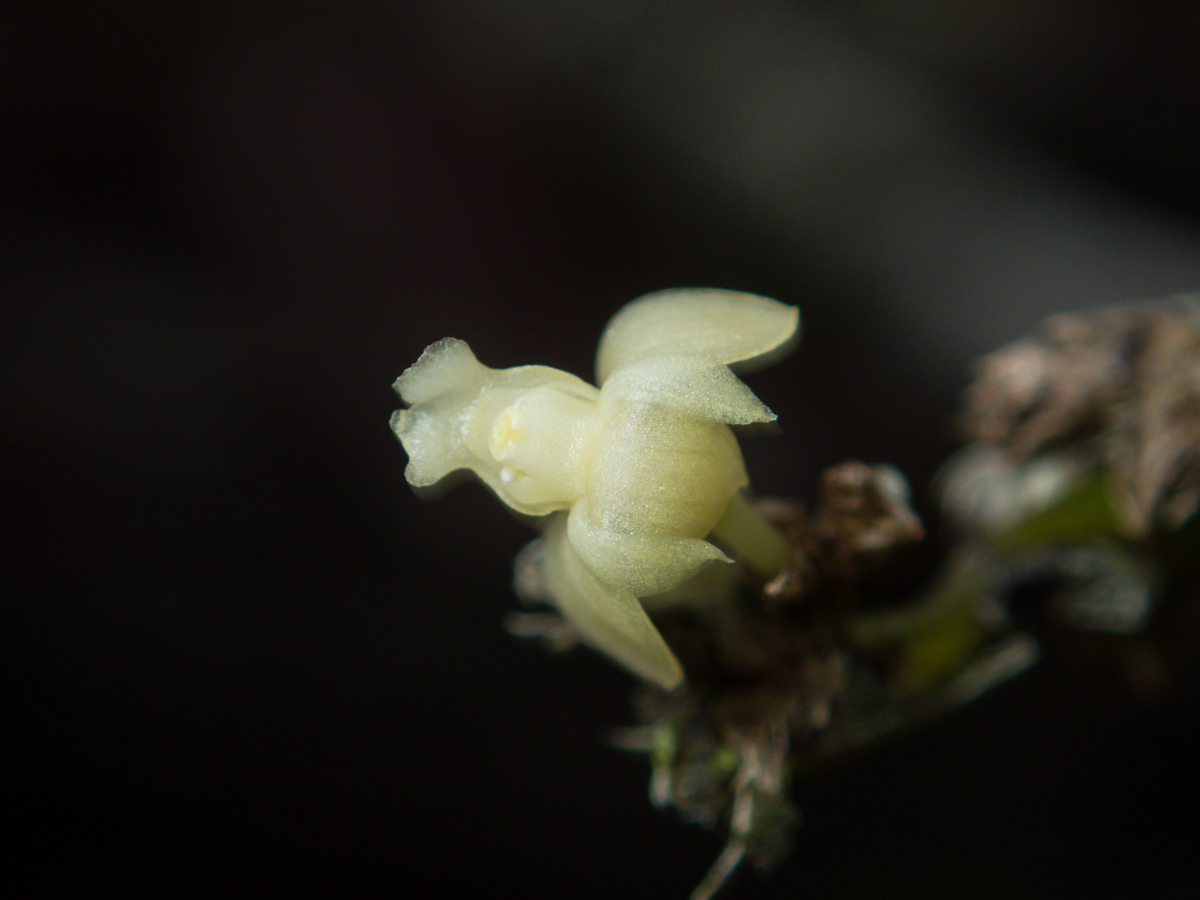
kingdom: Plantae
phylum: Tracheophyta
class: Liliopsida
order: Asparagales
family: Orchidaceae
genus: Dendrobium
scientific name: Dendrobium aloifolium
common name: Aloe-like dendrobium
